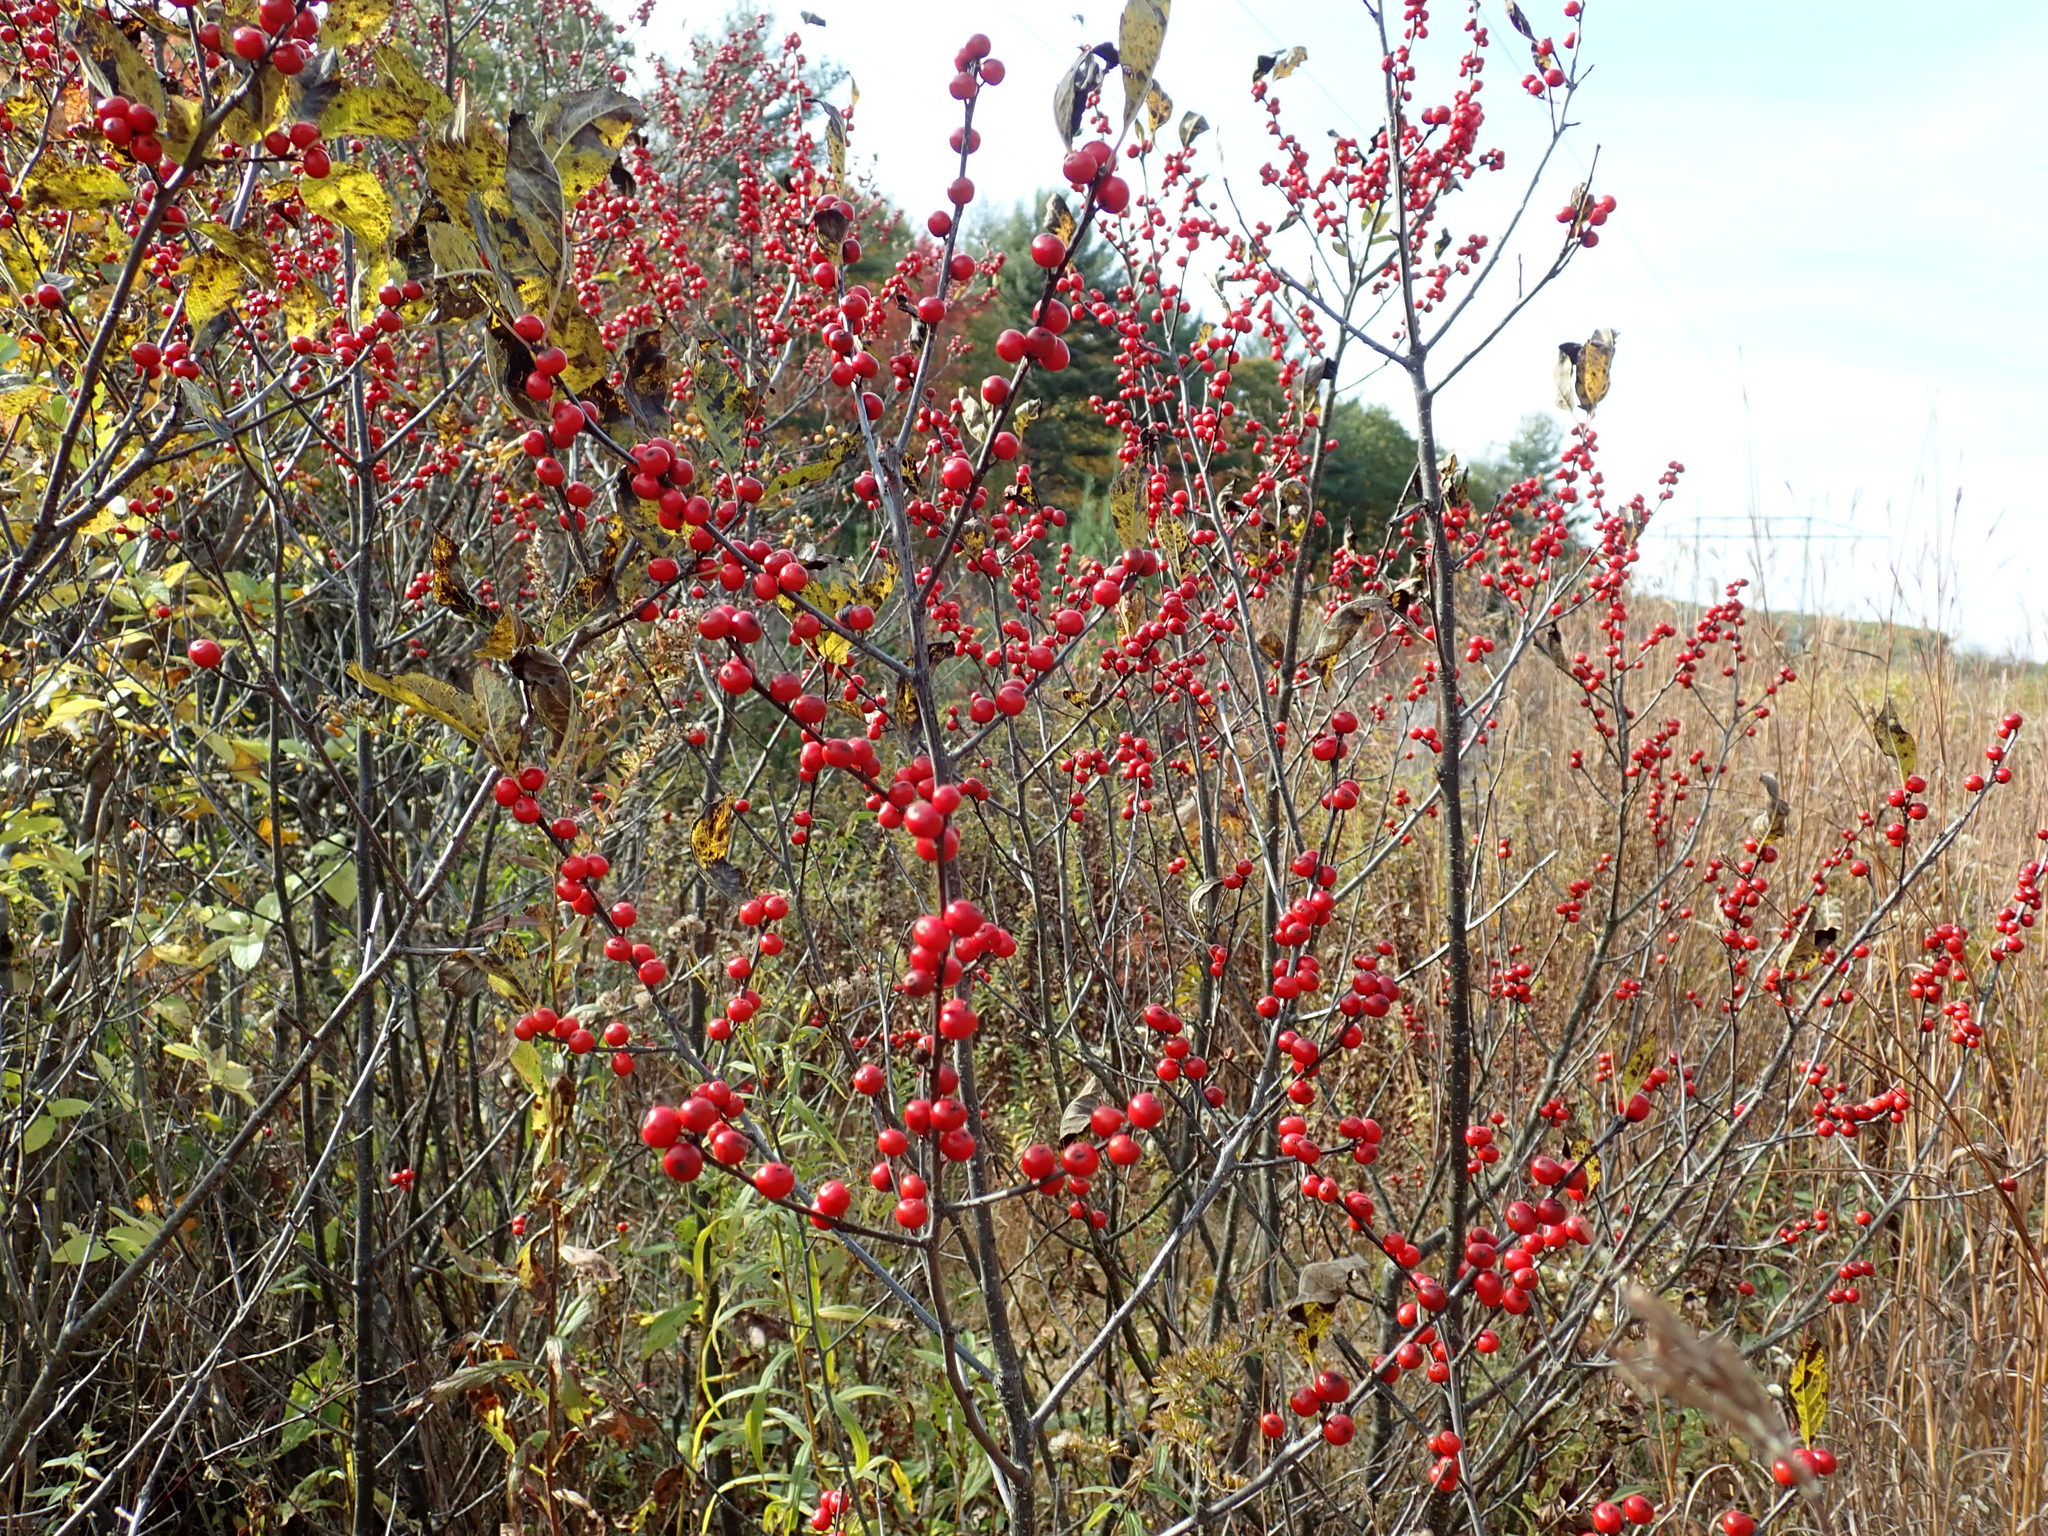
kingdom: Plantae
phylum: Tracheophyta
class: Magnoliopsida
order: Aquifoliales
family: Aquifoliaceae
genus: Ilex
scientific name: Ilex verticillata
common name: Virginia winterberry
